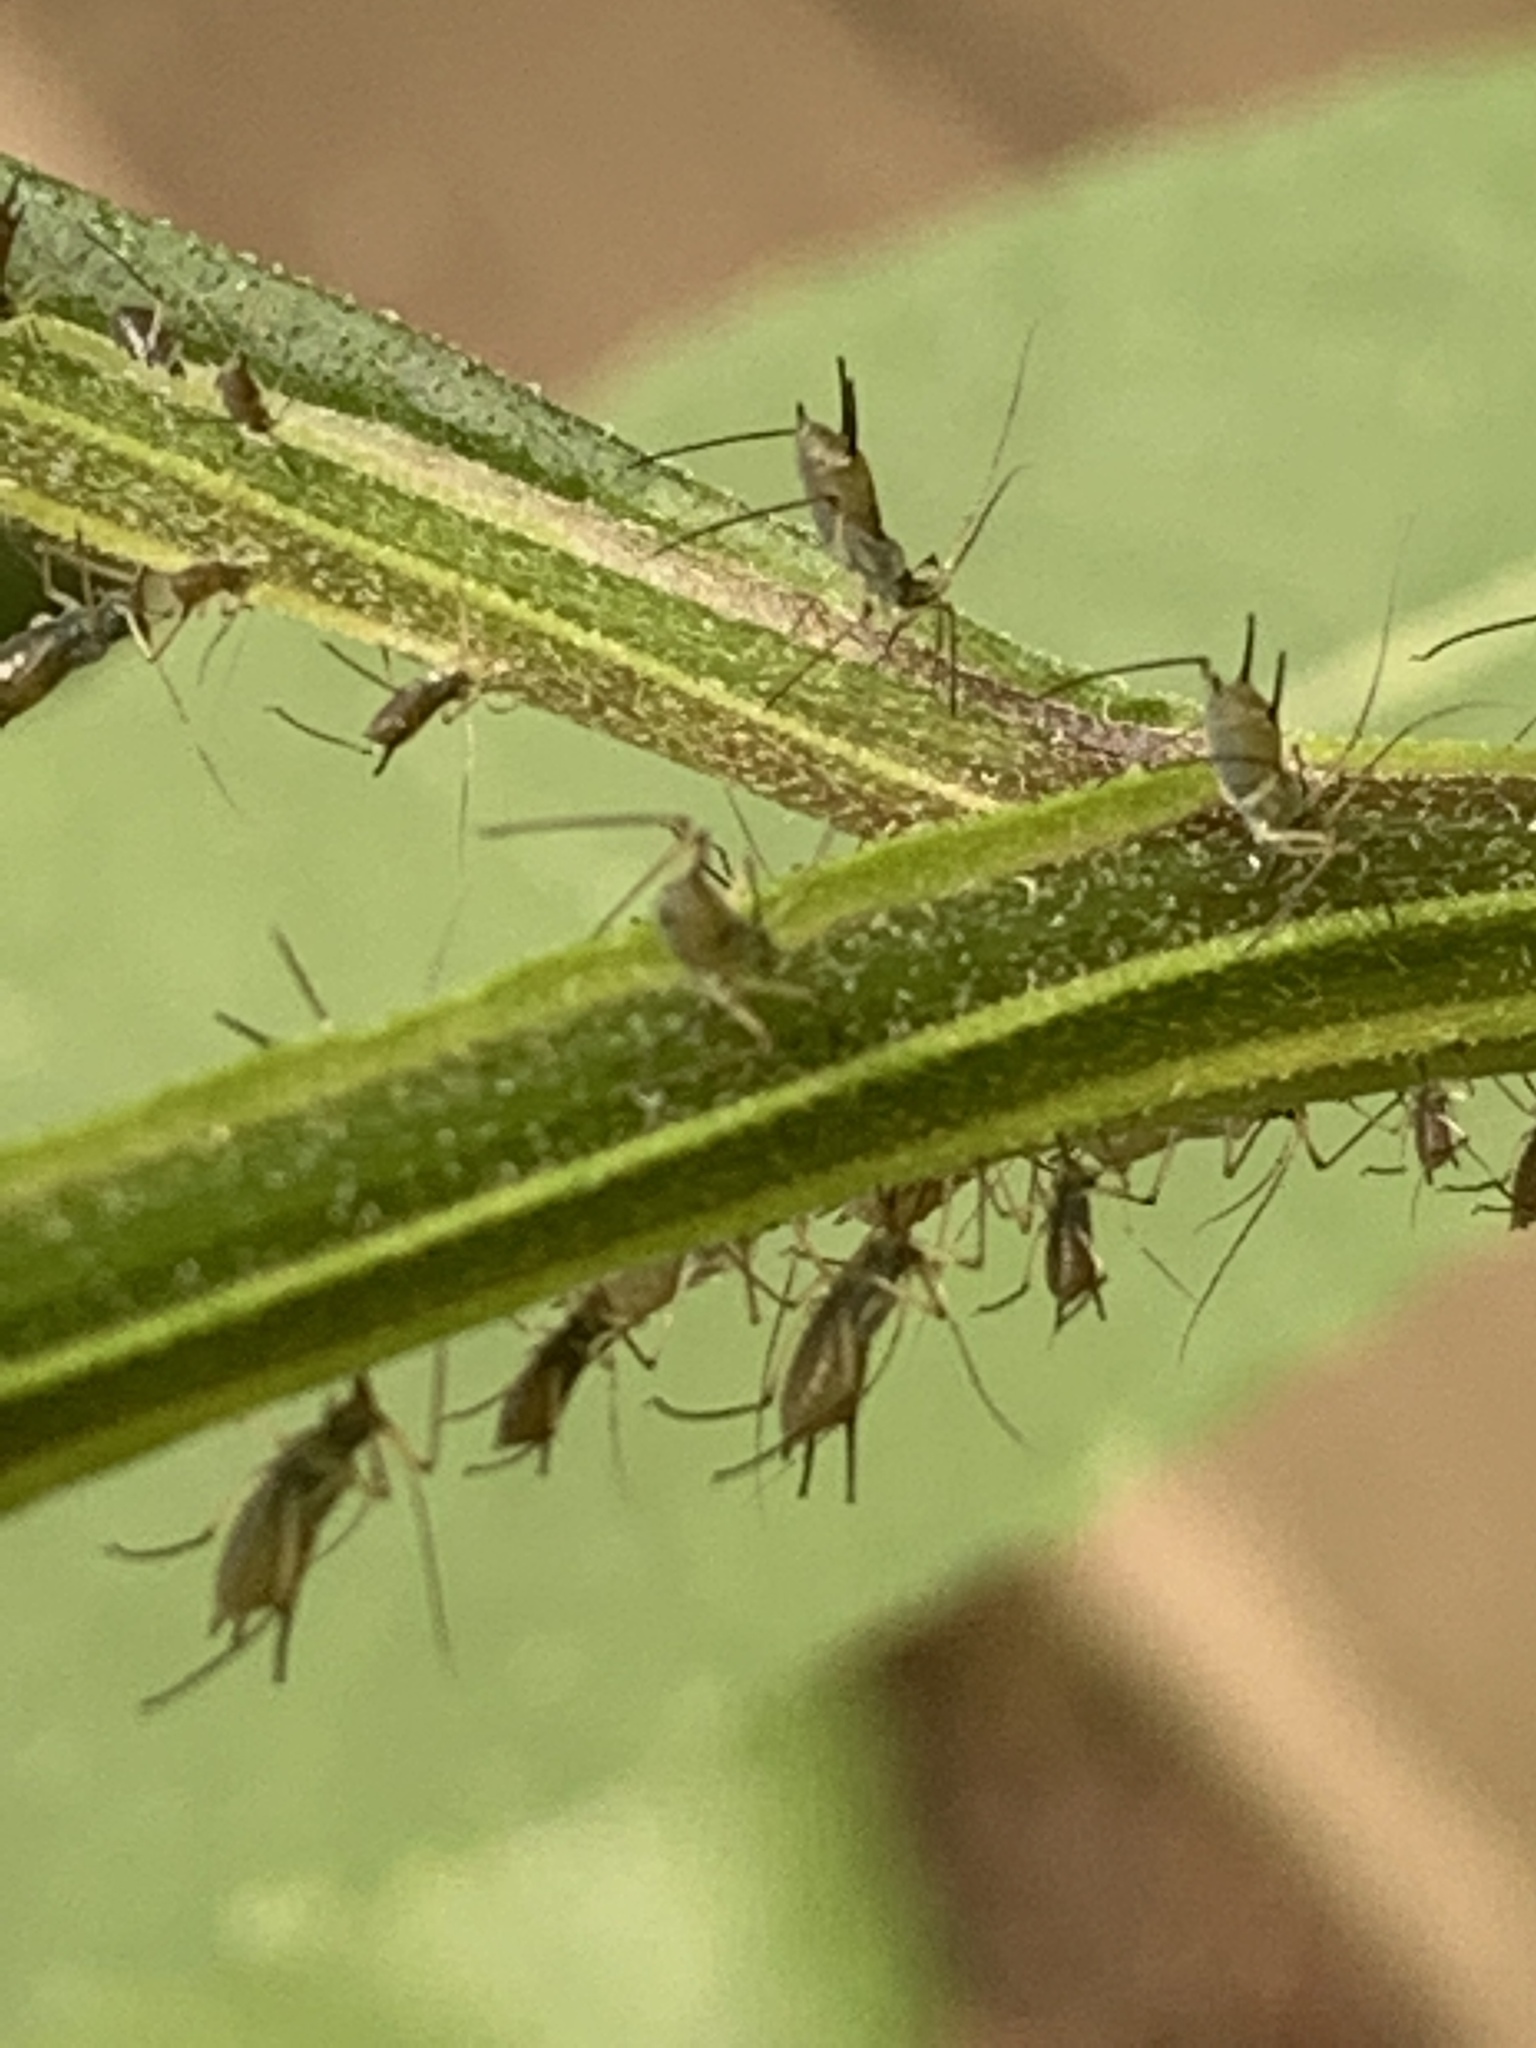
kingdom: Animalia
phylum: Arthropoda
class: Insecta
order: Hemiptera
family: Aphididae
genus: Uroleucon
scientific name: Uroleucon
